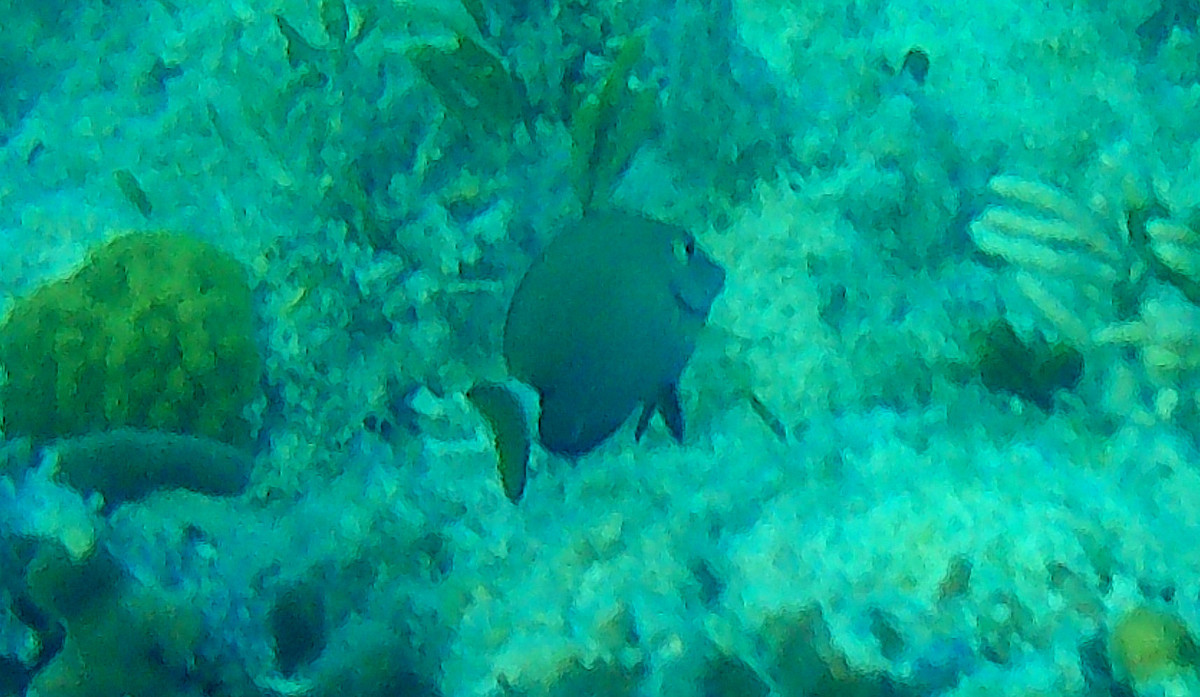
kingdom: Animalia
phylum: Chordata
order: Perciformes
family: Acanthuridae
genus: Acanthurus
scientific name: Acanthurus bahianus
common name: Ocean surgeon
